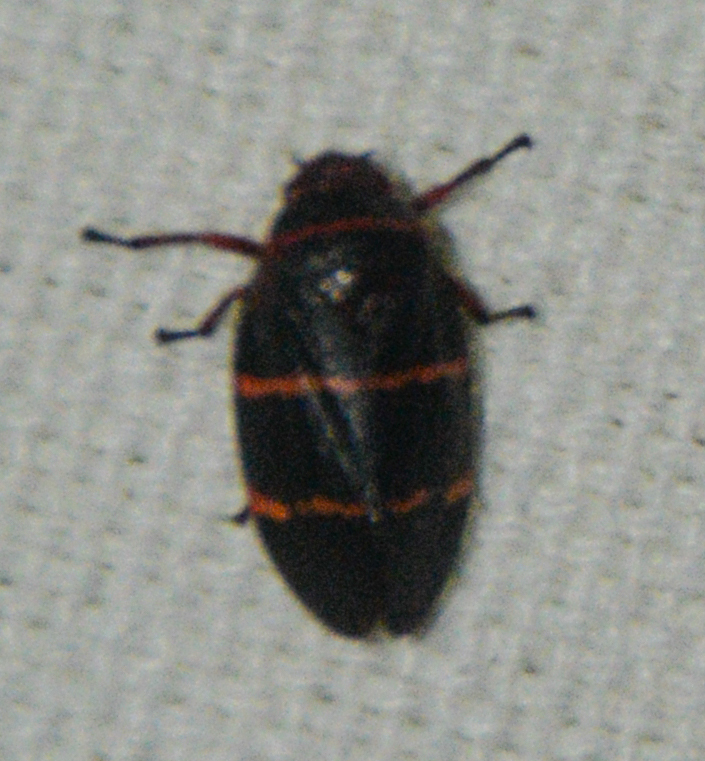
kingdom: Animalia
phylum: Arthropoda
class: Insecta
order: Hemiptera
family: Cercopidae
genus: Prosapia
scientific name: Prosapia bicincta
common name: Twolined spittlebug
